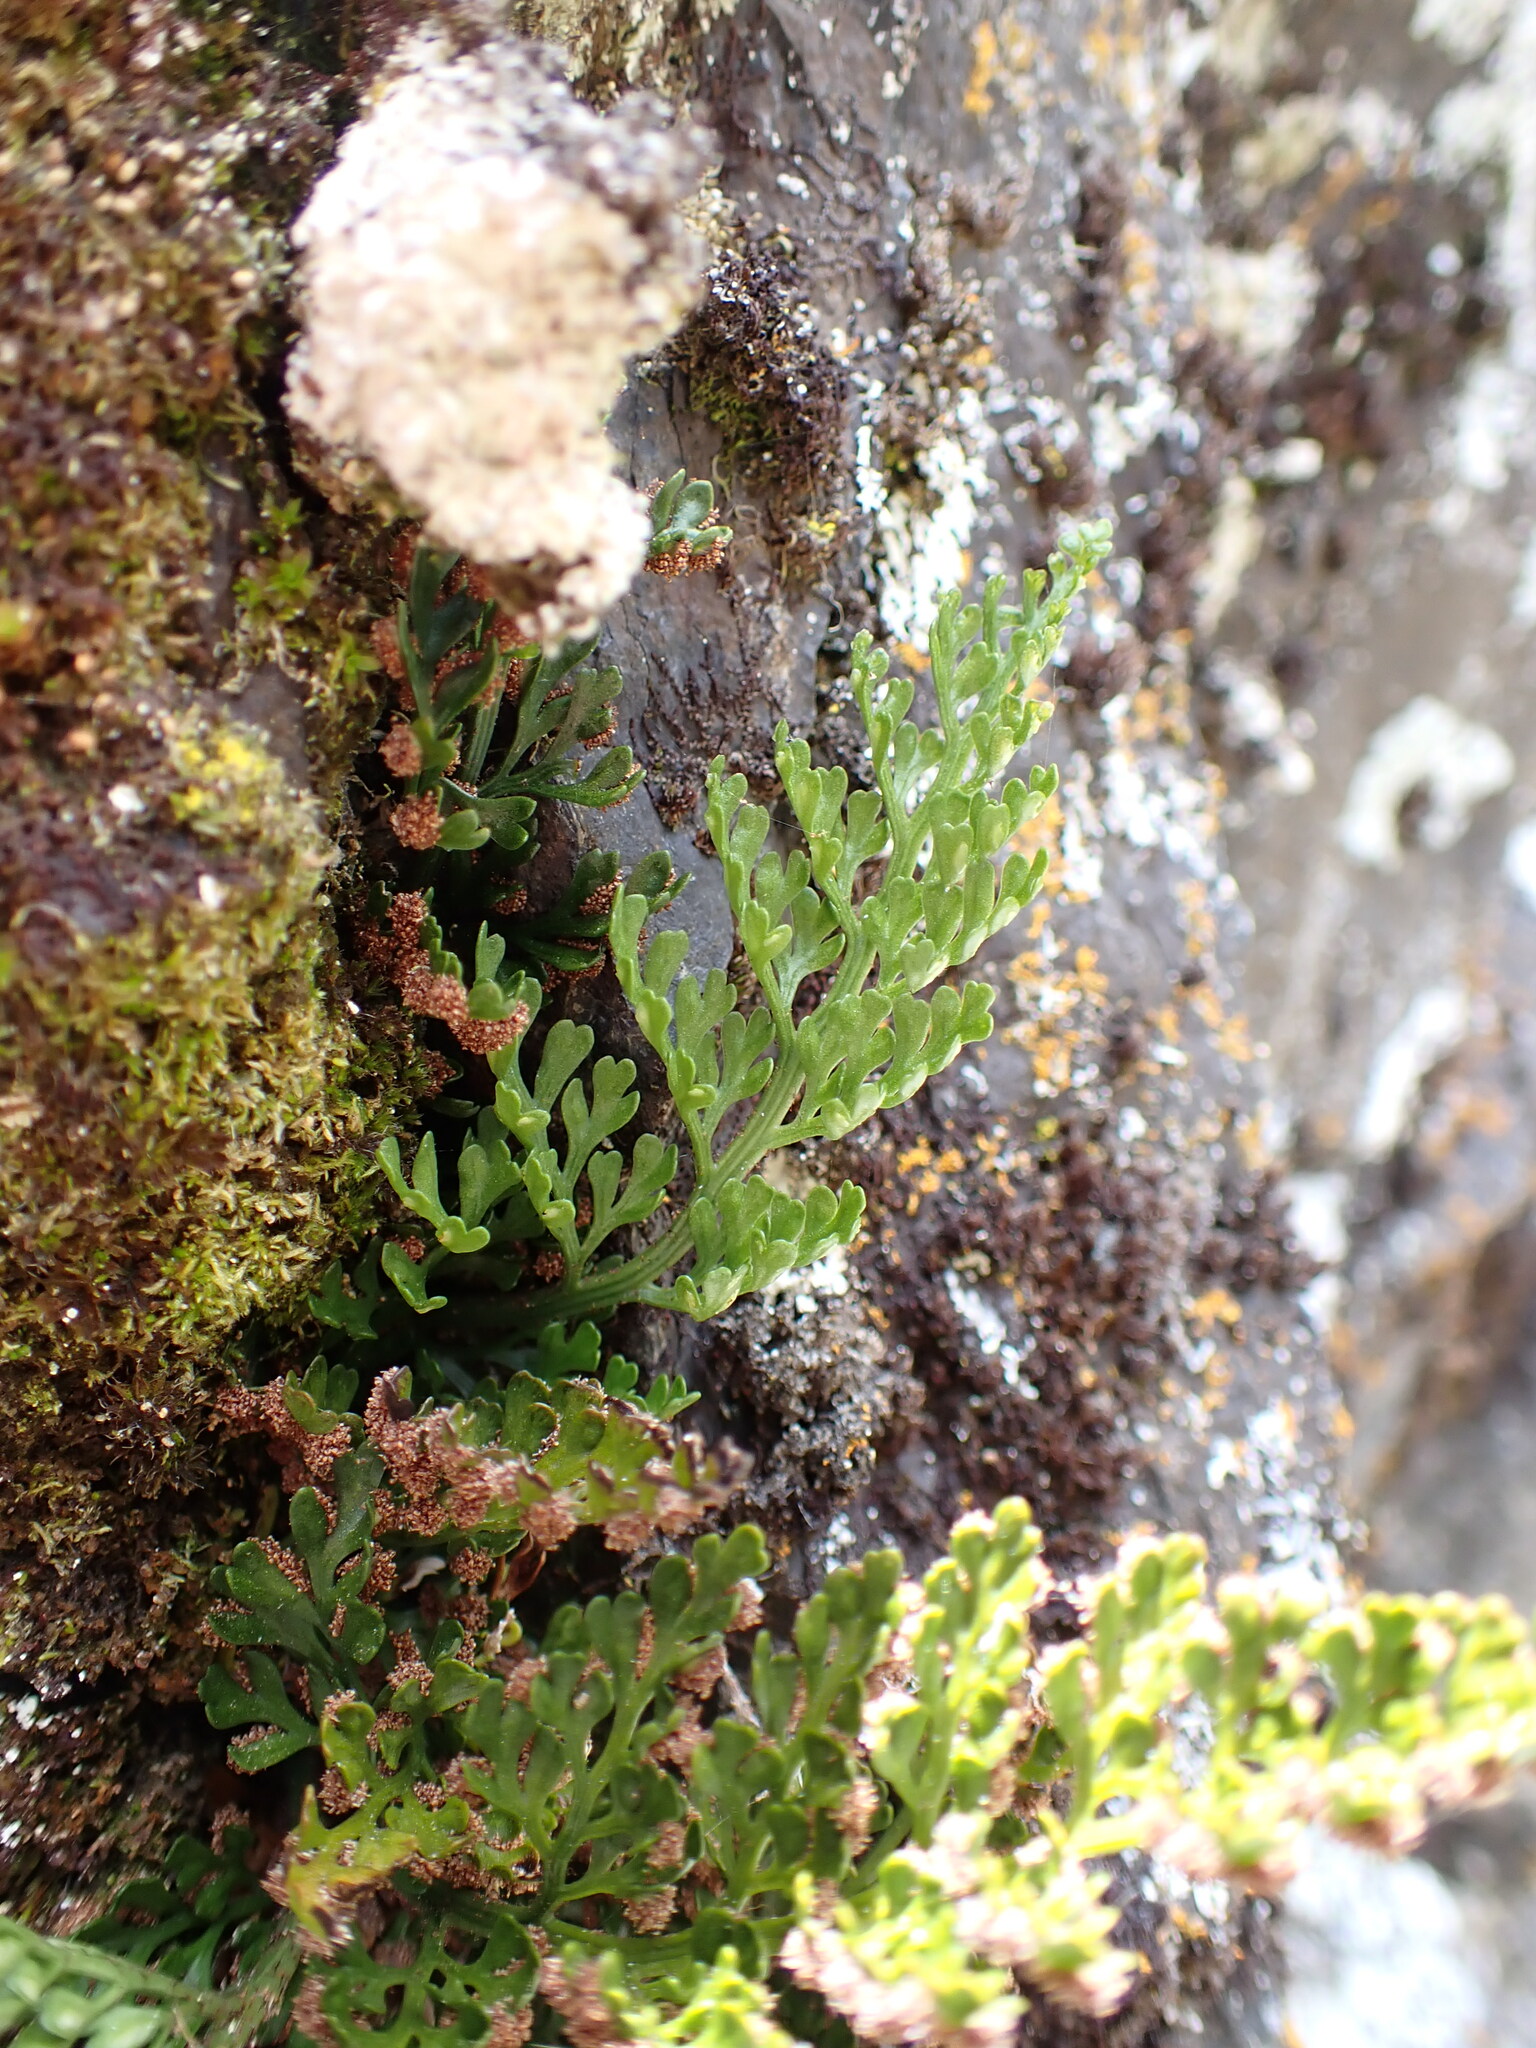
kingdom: Plantae
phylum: Tracheophyta
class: Polypodiopsida
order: Polypodiales
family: Aspleniaceae
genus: Asplenium
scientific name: Asplenium richardii
